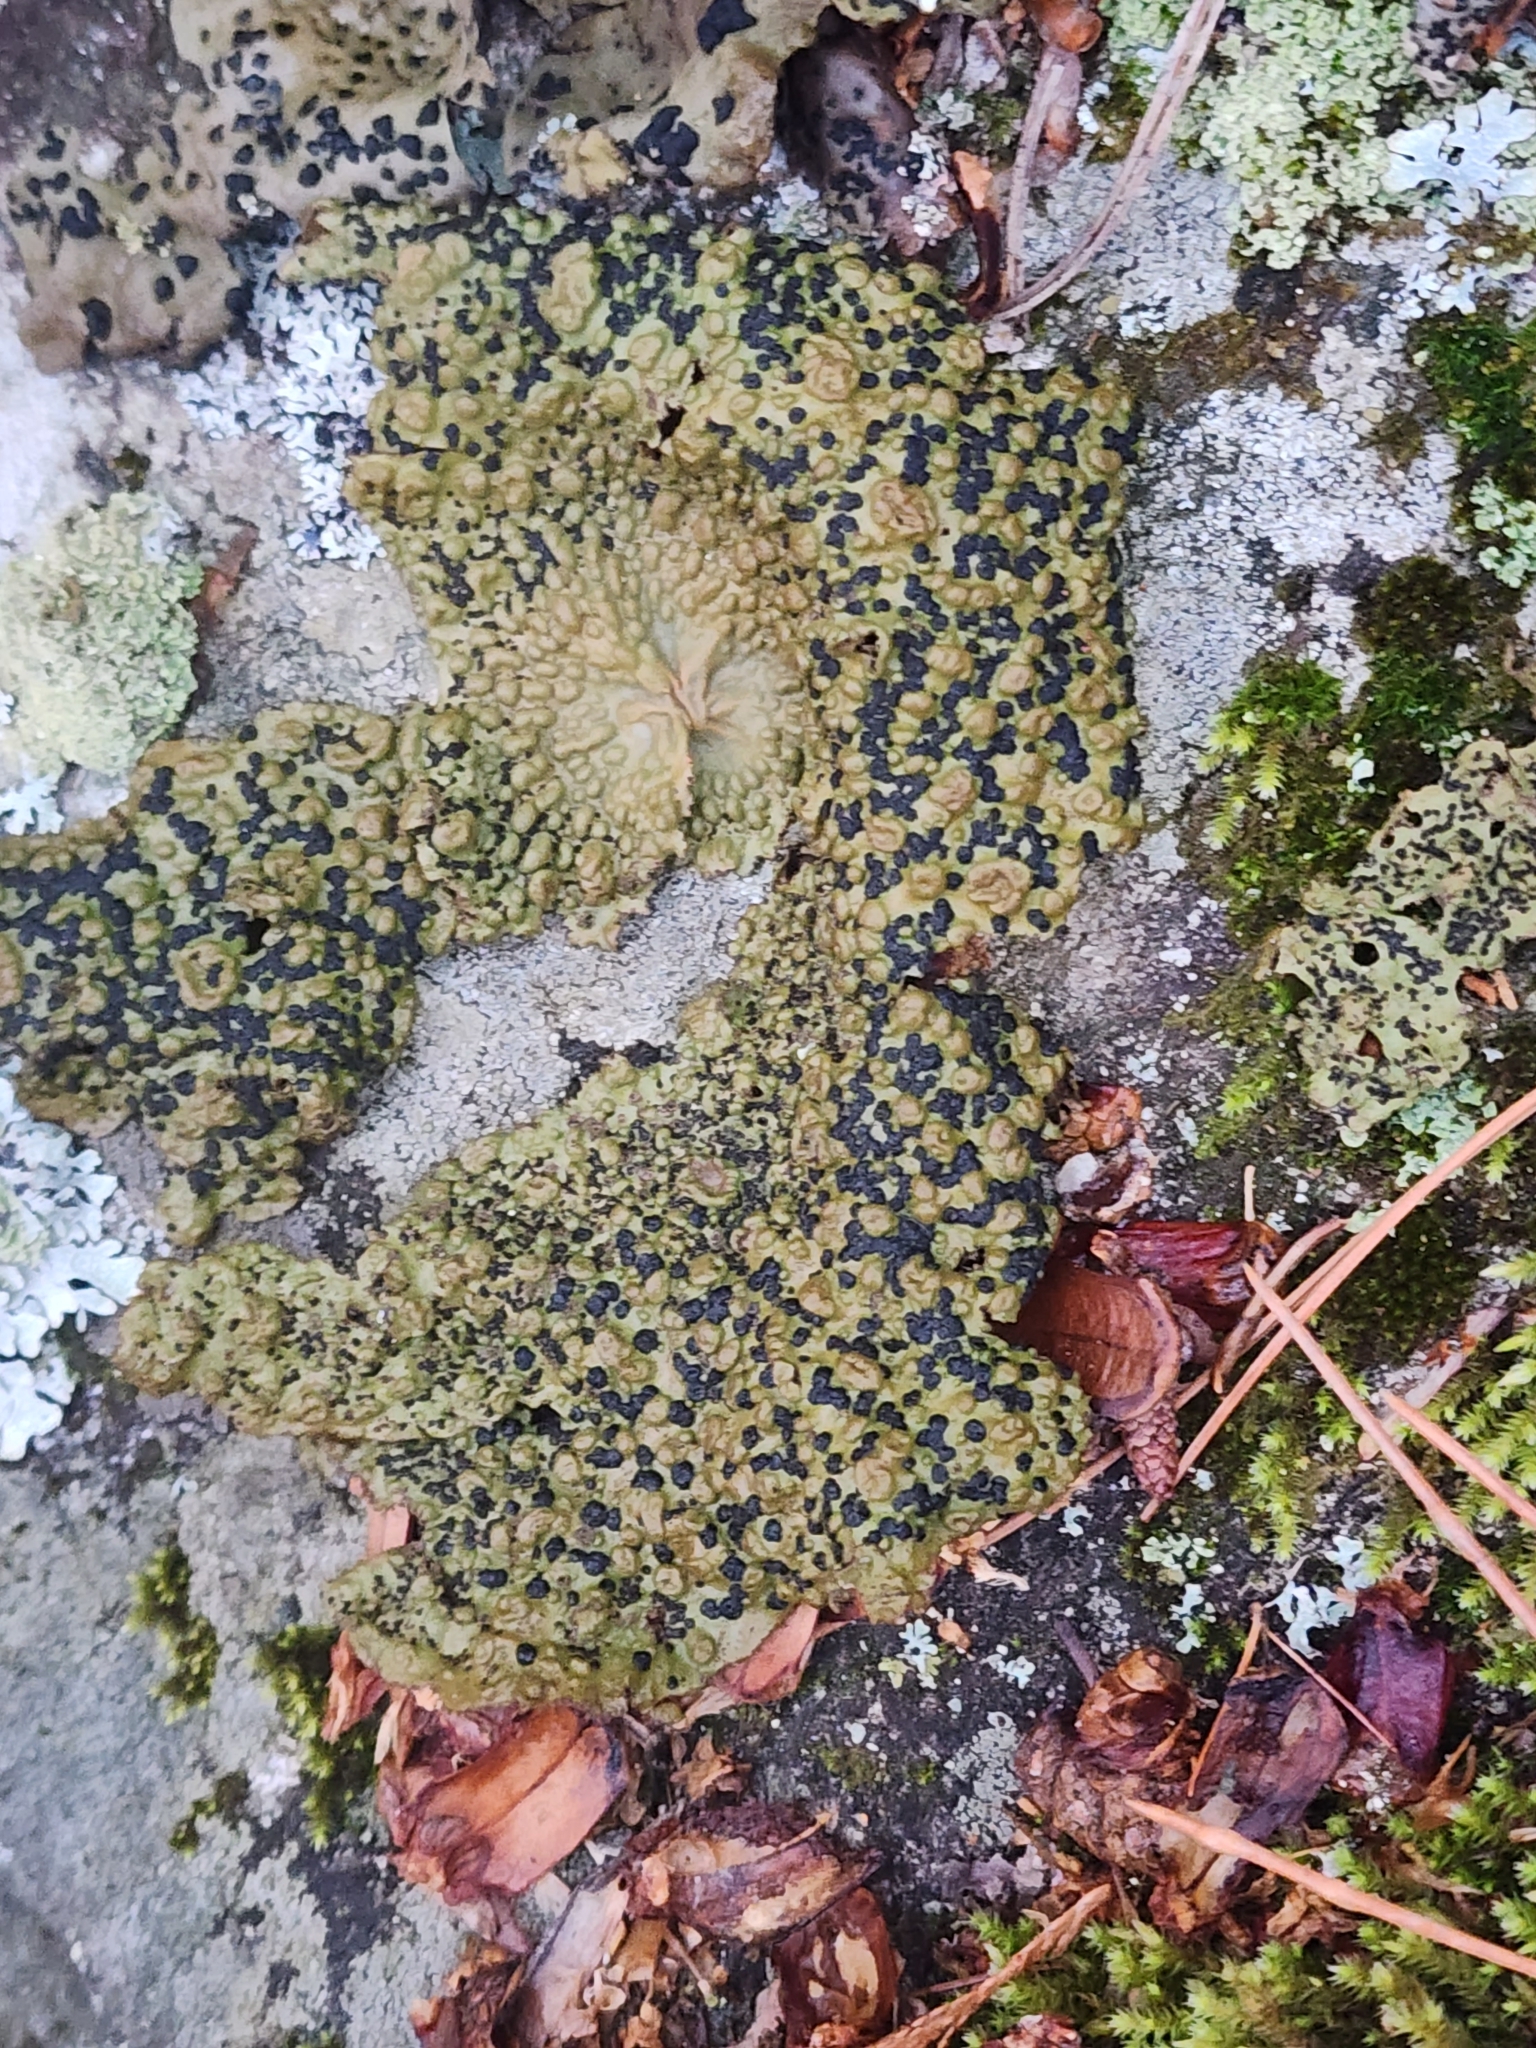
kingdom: Fungi
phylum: Ascomycota
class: Lecanoromycetes
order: Umbilicariales
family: Umbilicariaceae
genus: Umbilicaria
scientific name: Umbilicaria muhlenbergii
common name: Lesser rocktripe
